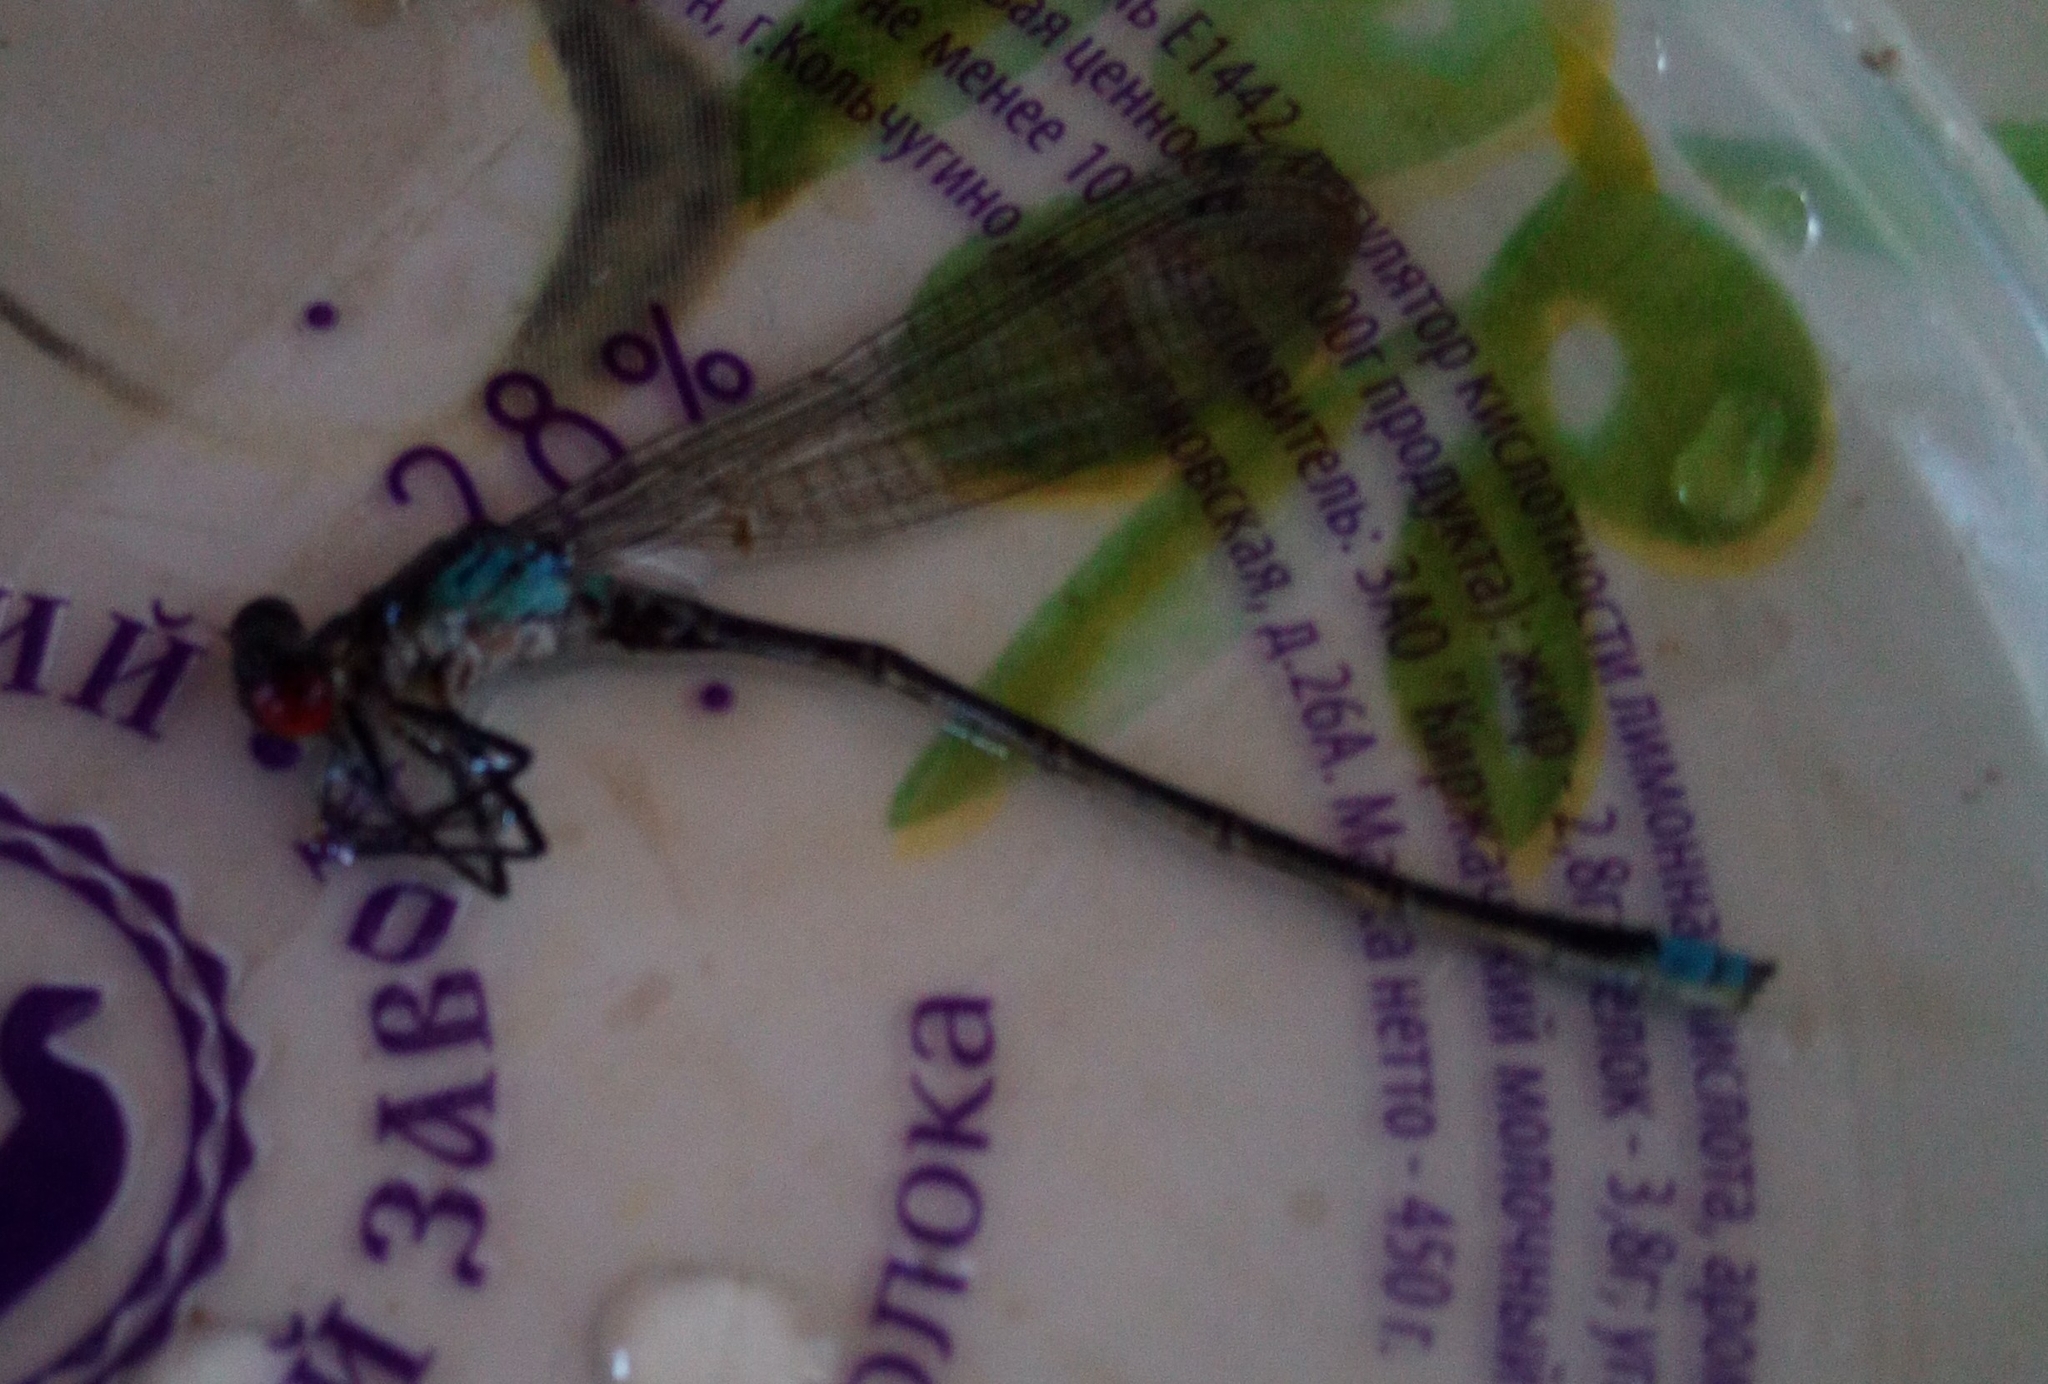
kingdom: Animalia
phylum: Arthropoda
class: Insecta
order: Odonata
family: Coenagrionidae
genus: Erythromma
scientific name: Erythromma najas
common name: Red-eyed damselfly
